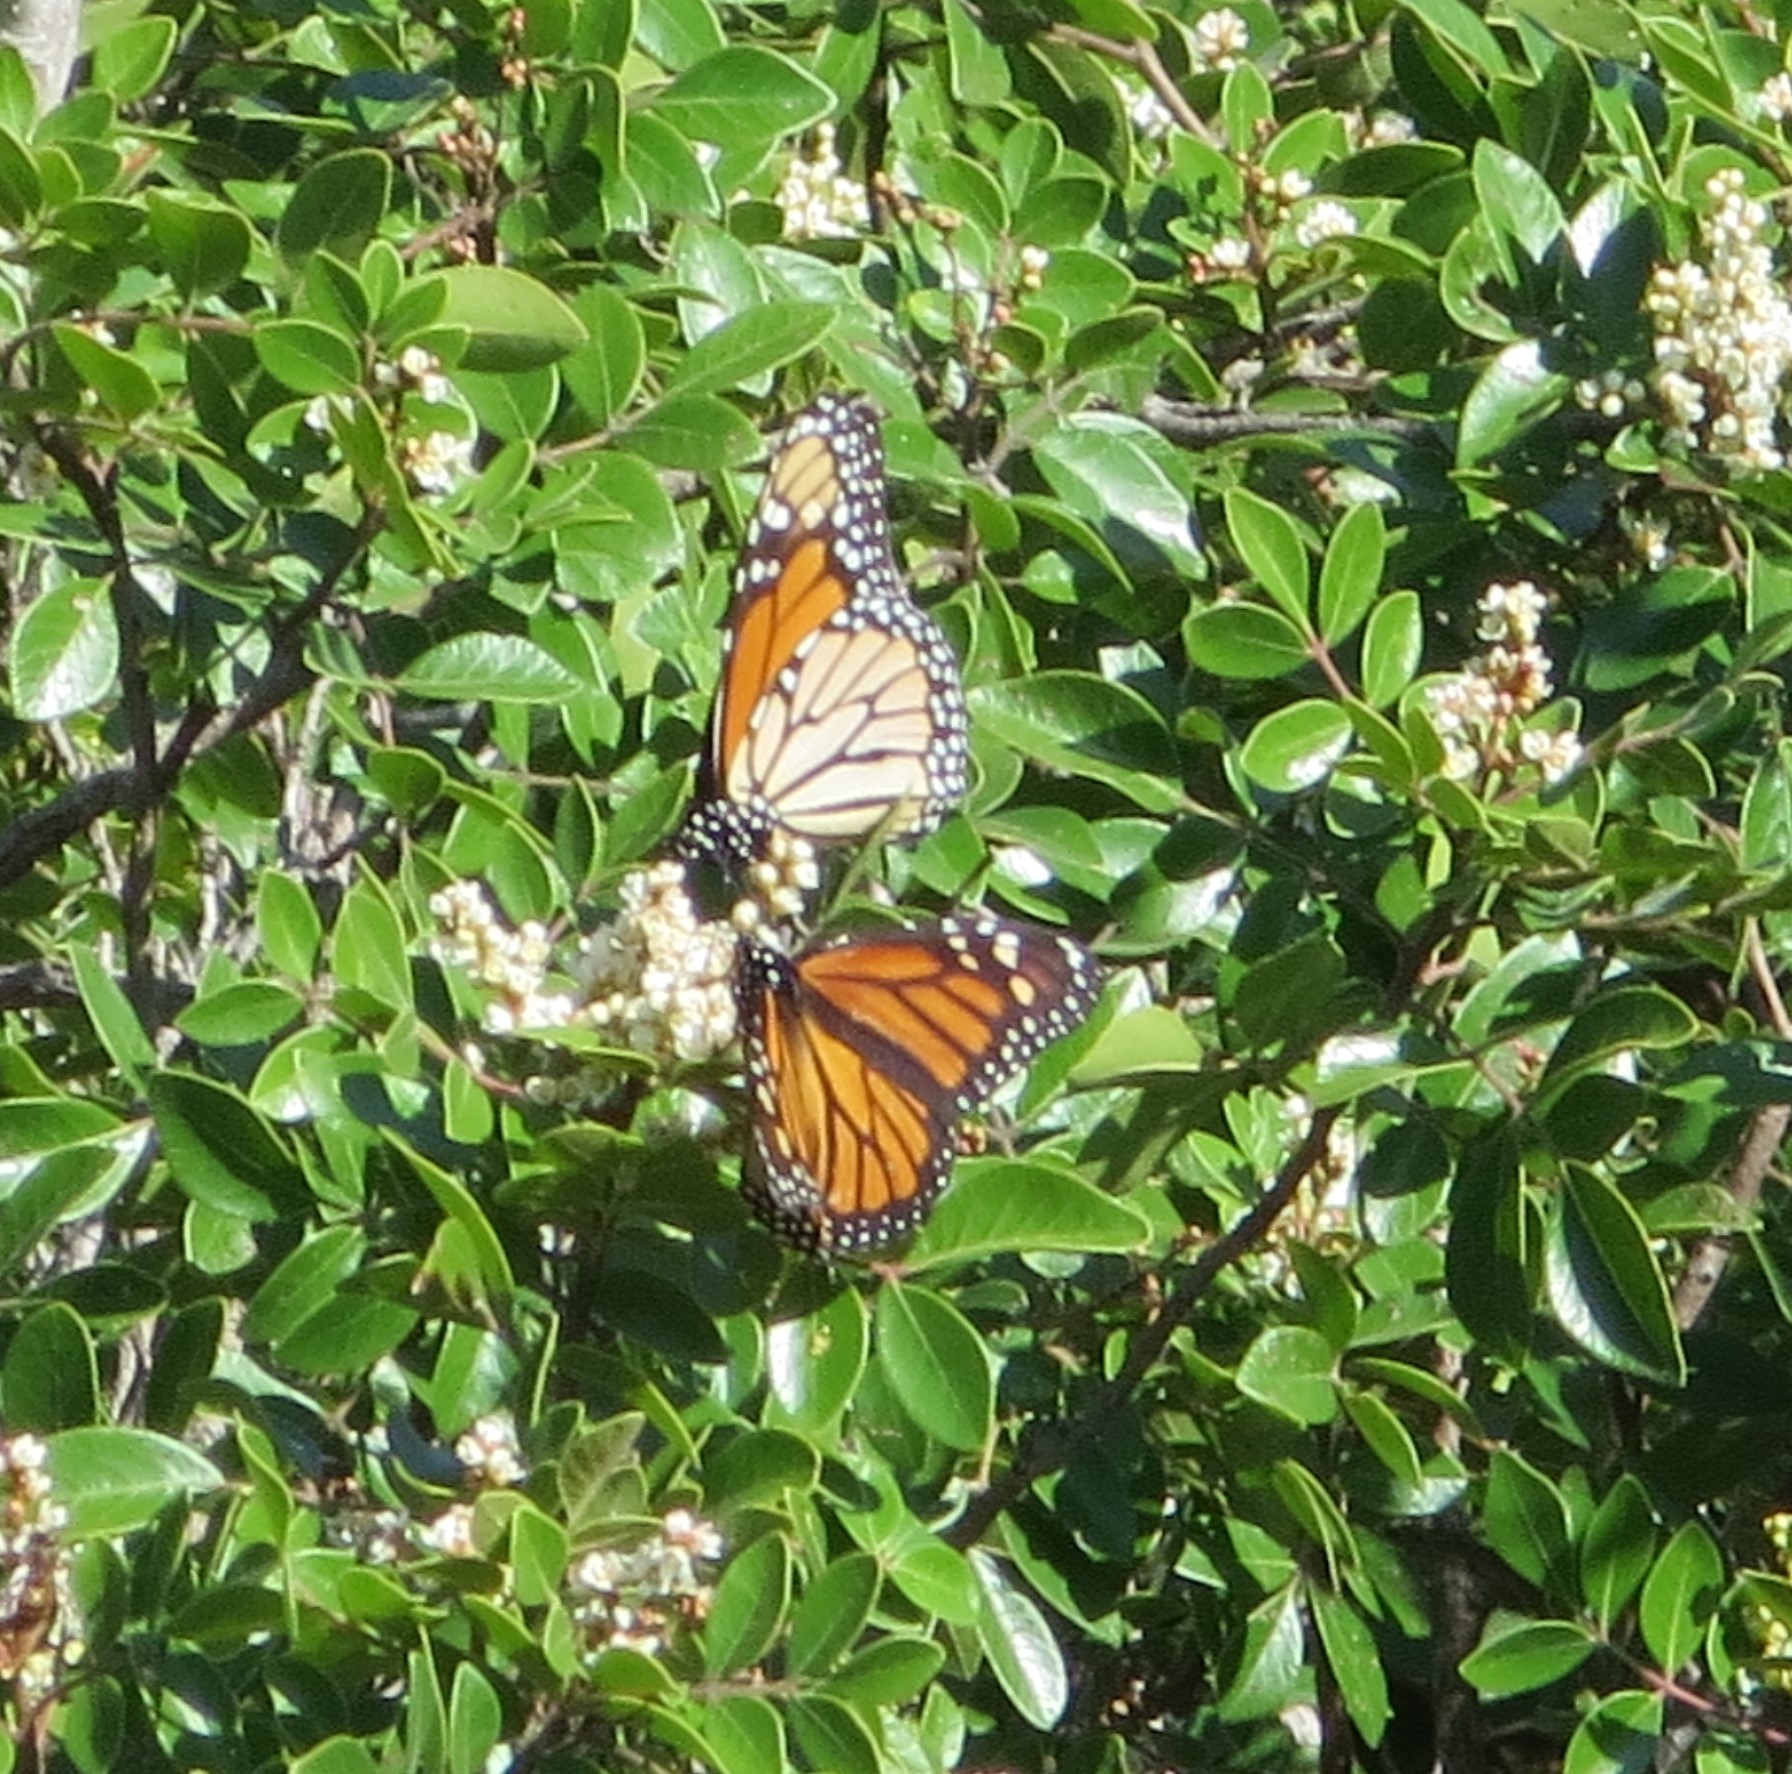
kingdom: Animalia
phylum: Arthropoda
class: Insecta
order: Lepidoptera
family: Nymphalidae
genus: Danaus
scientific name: Danaus plexippus
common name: Monarch
